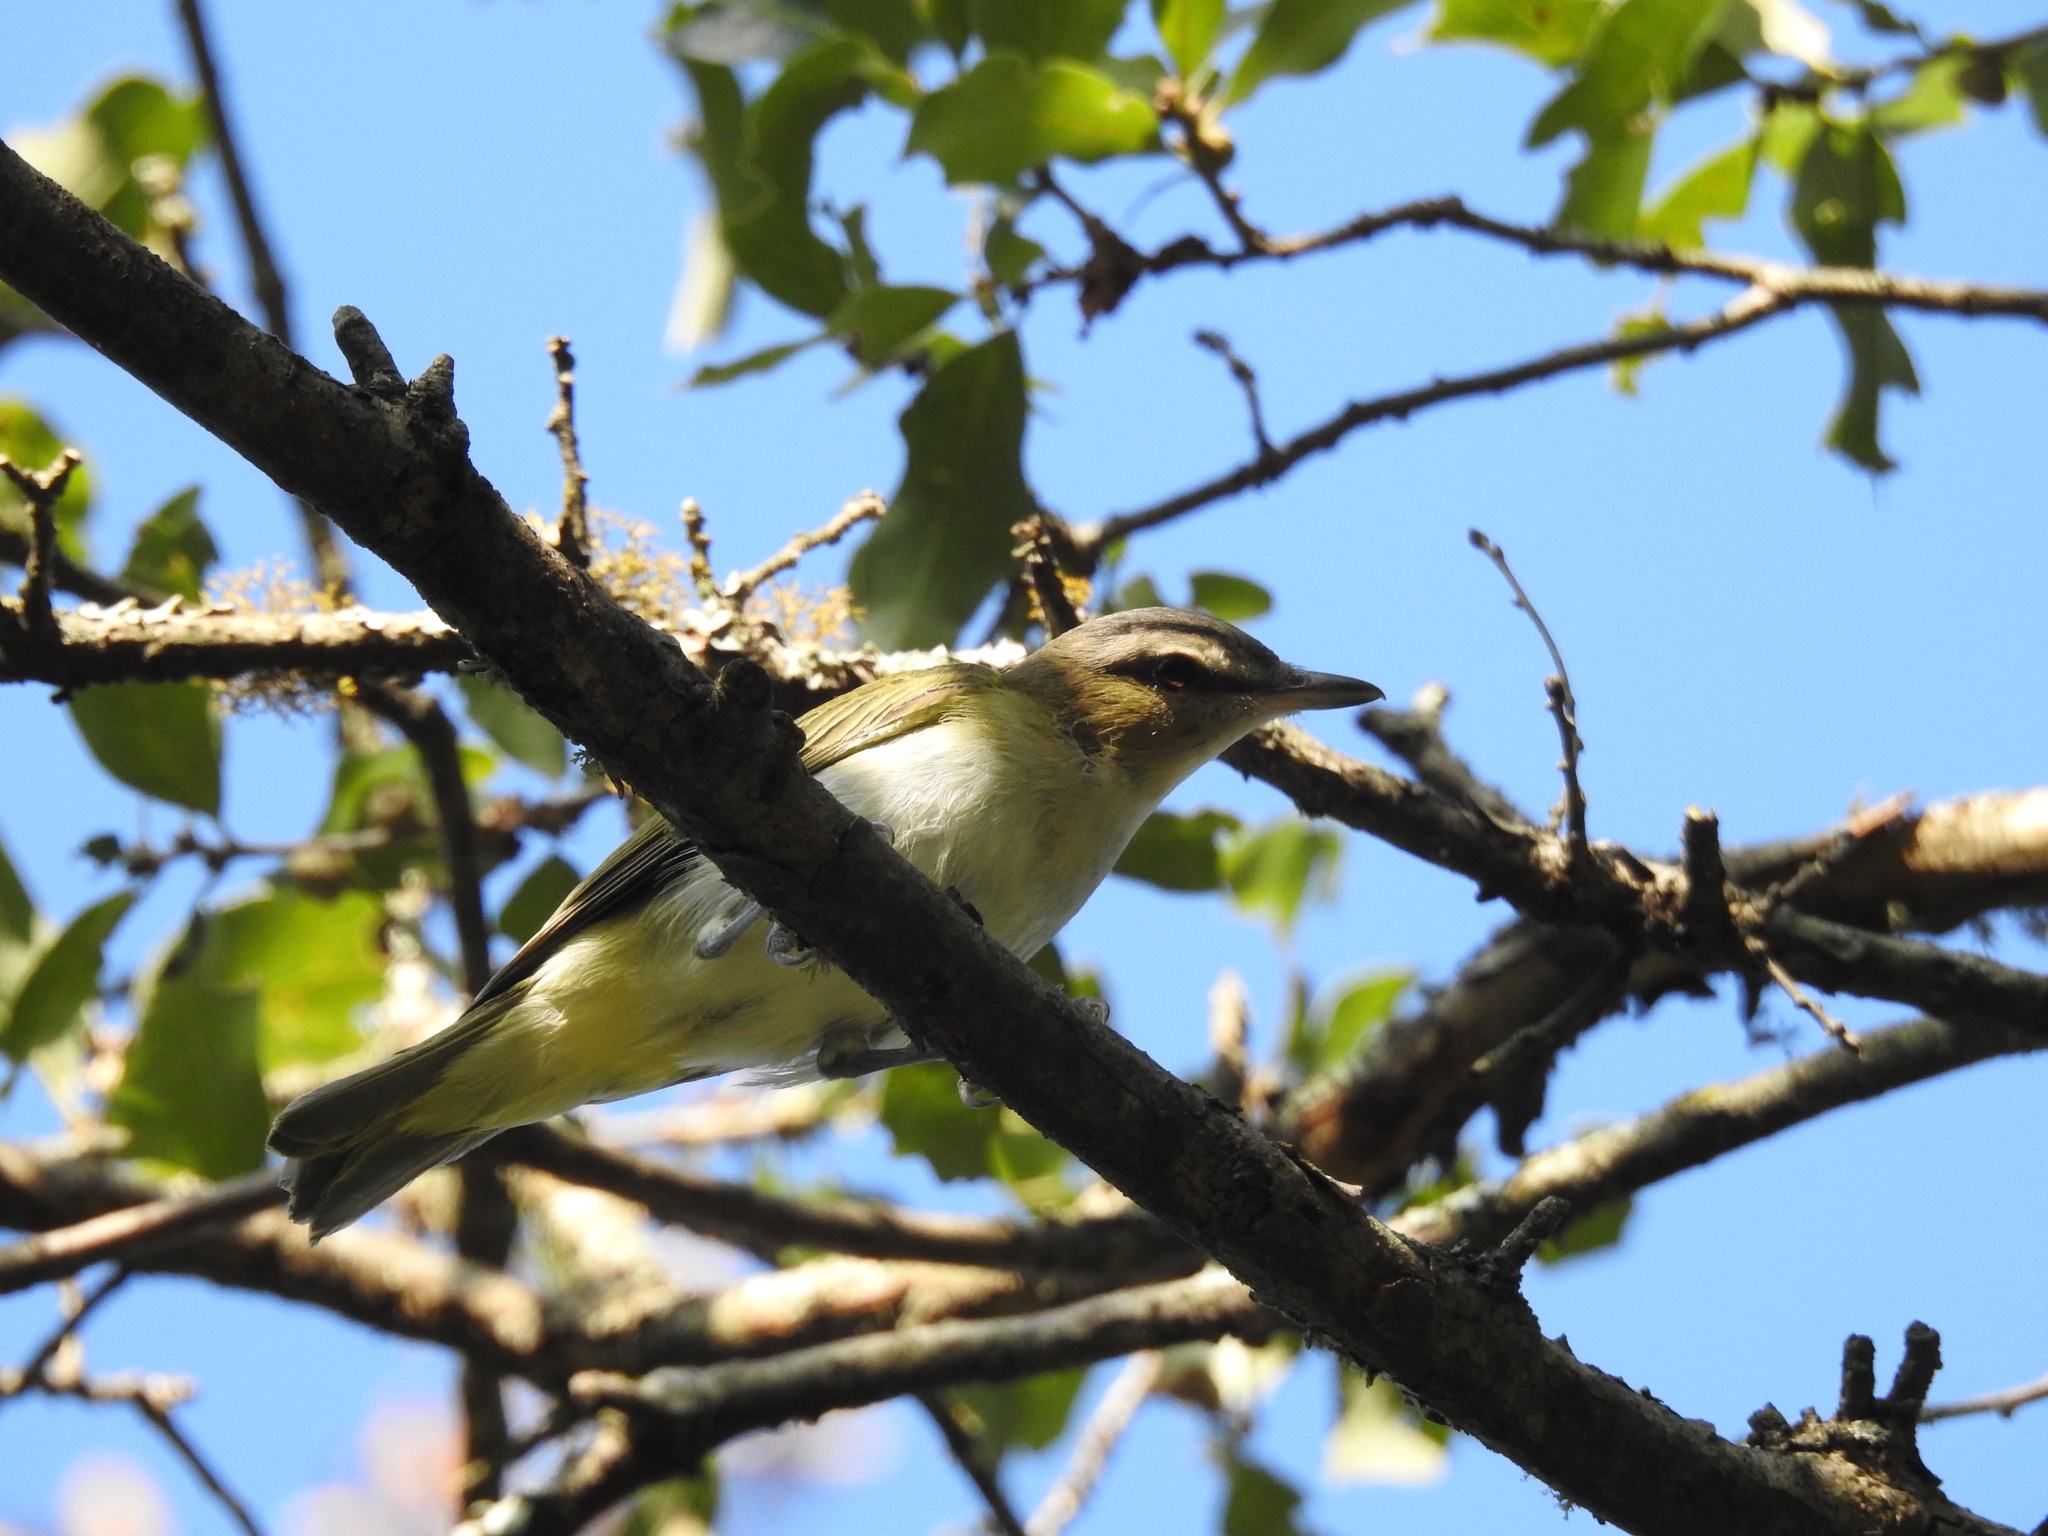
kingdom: Animalia
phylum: Chordata
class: Aves
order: Passeriformes
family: Vireonidae
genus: Vireo
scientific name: Vireo olivaceus
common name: Red-eyed vireo
